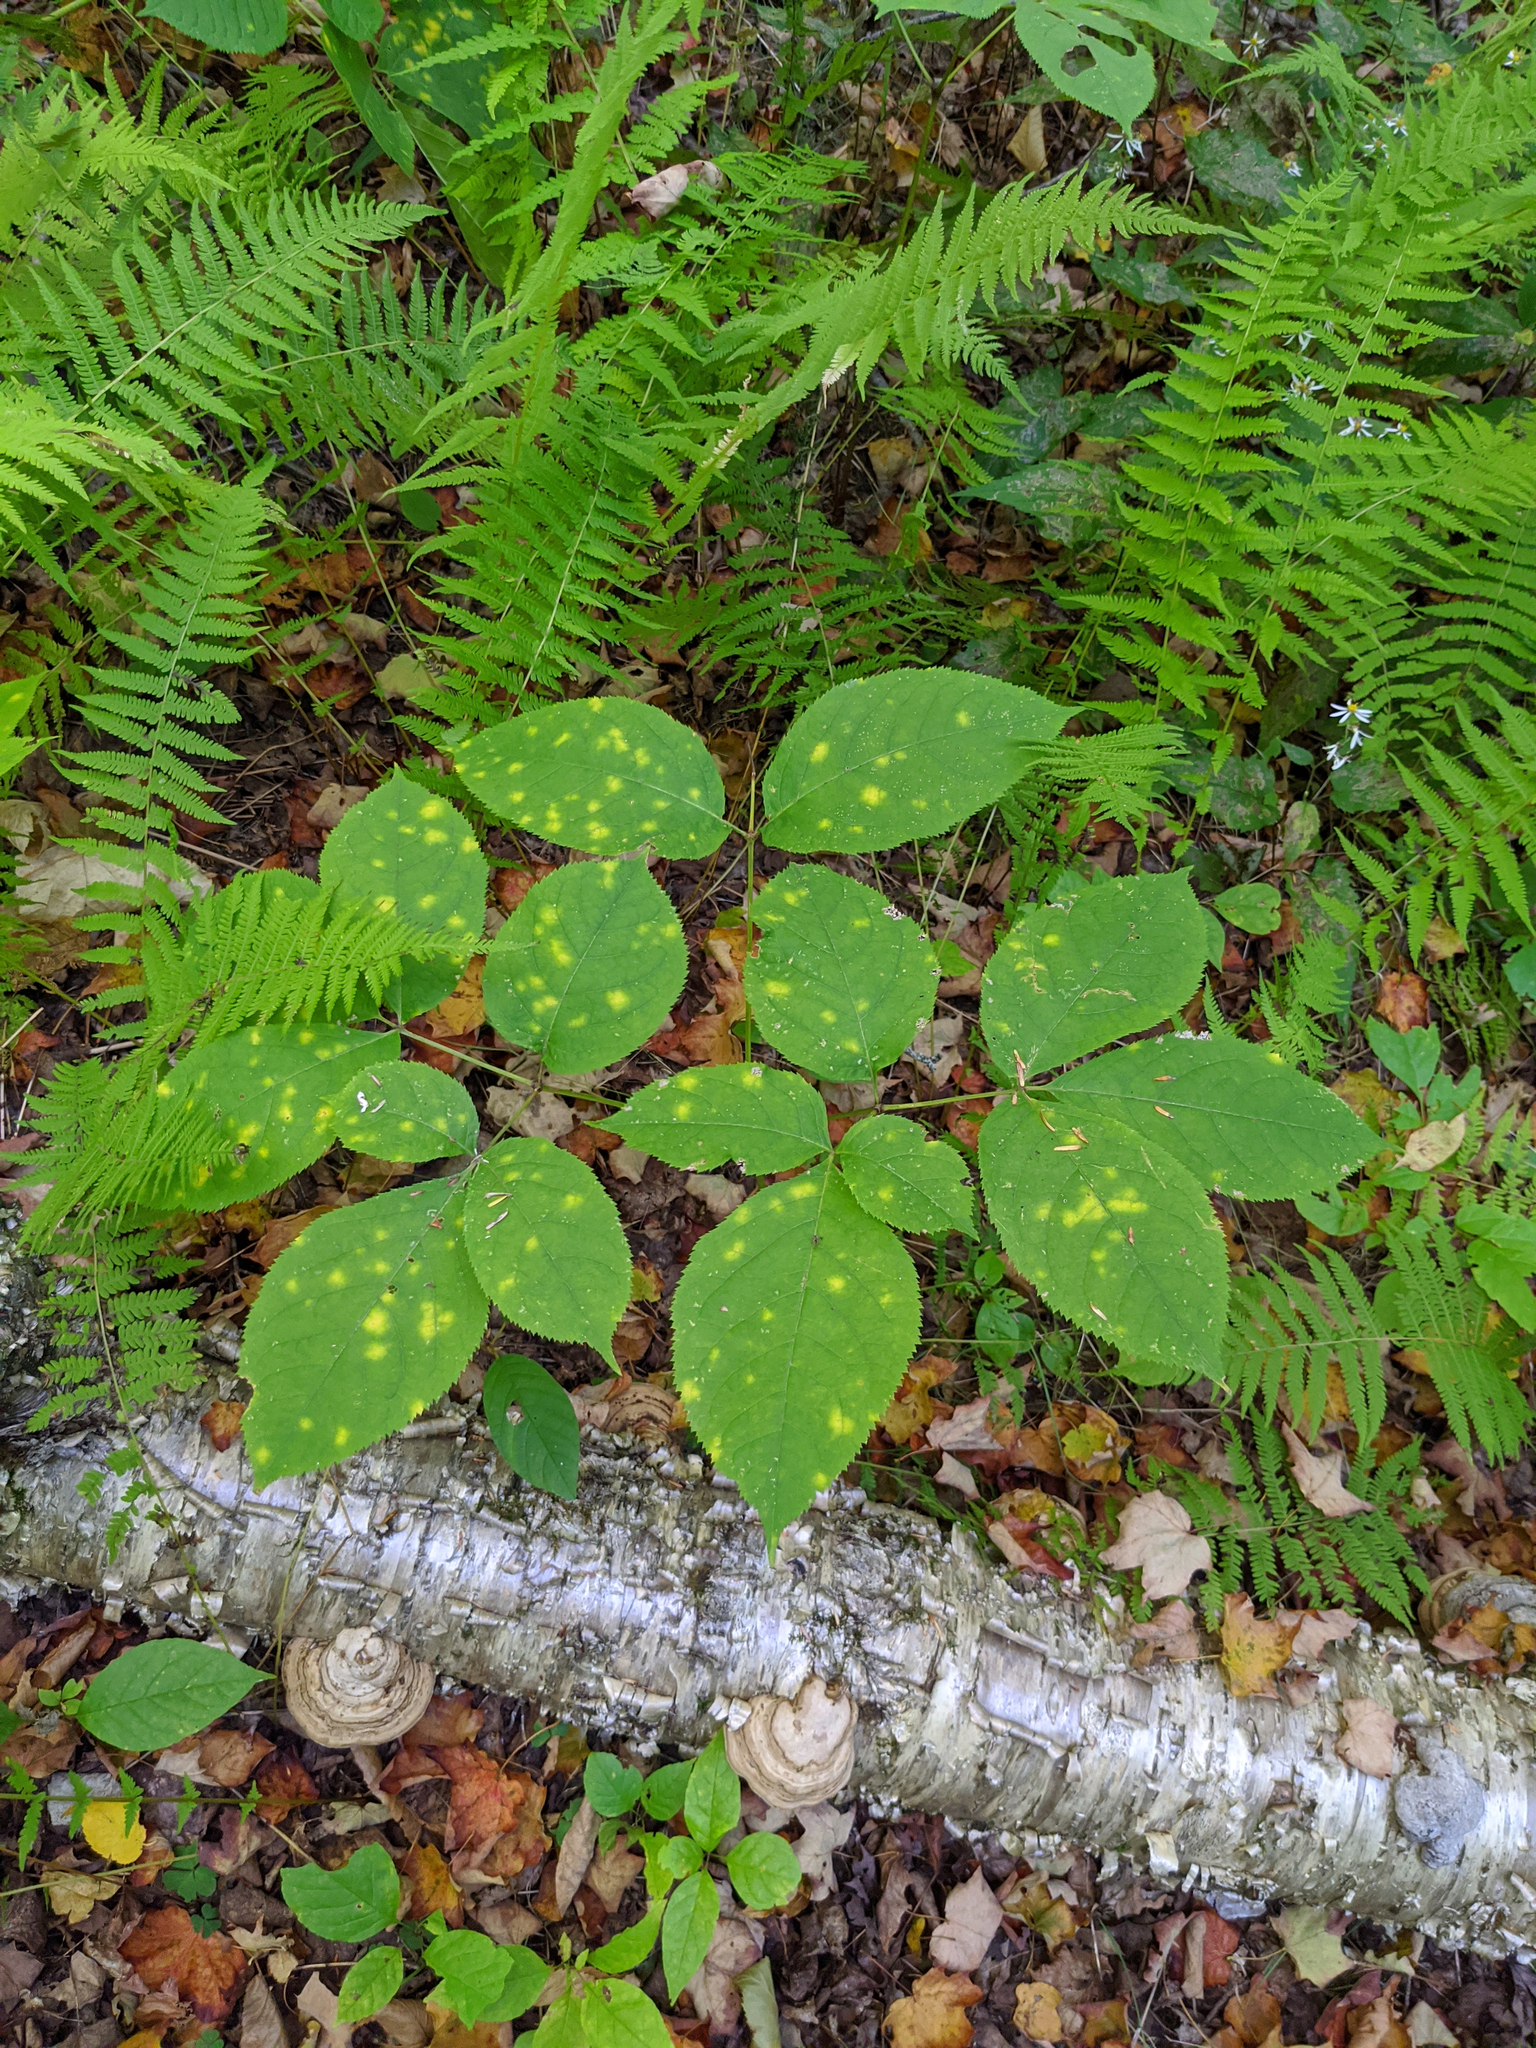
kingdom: Plantae
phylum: Tracheophyta
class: Magnoliopsida
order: Apiales
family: Araliaceae
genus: Aralia
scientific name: Aralia nudicaulis
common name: Wild sarsaparilla
